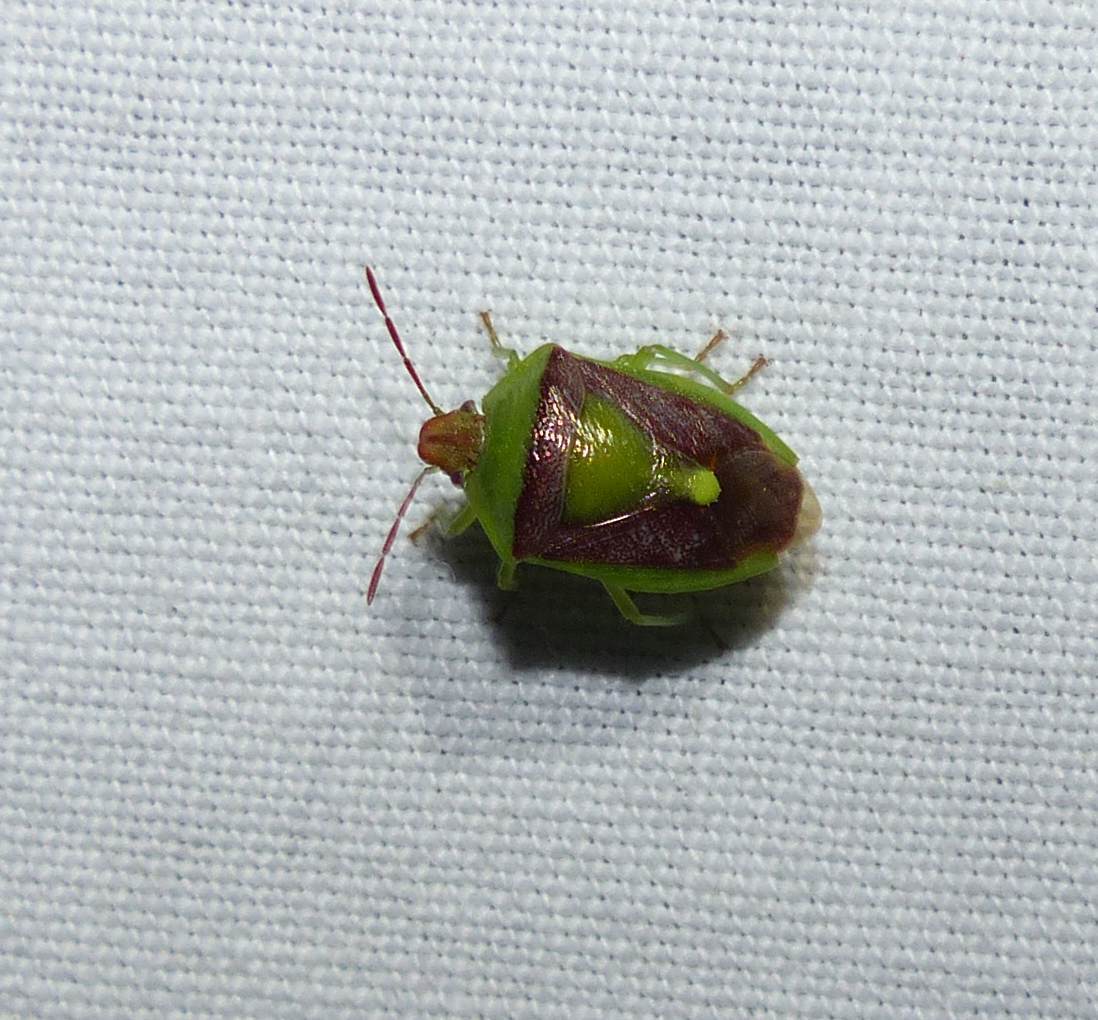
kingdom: Animalia
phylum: Arthropoda
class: Insecta
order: Hemiptera
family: Pentatomidae
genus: Banasa
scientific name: Banasa dimidiata
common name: Green burgundy stink bug
